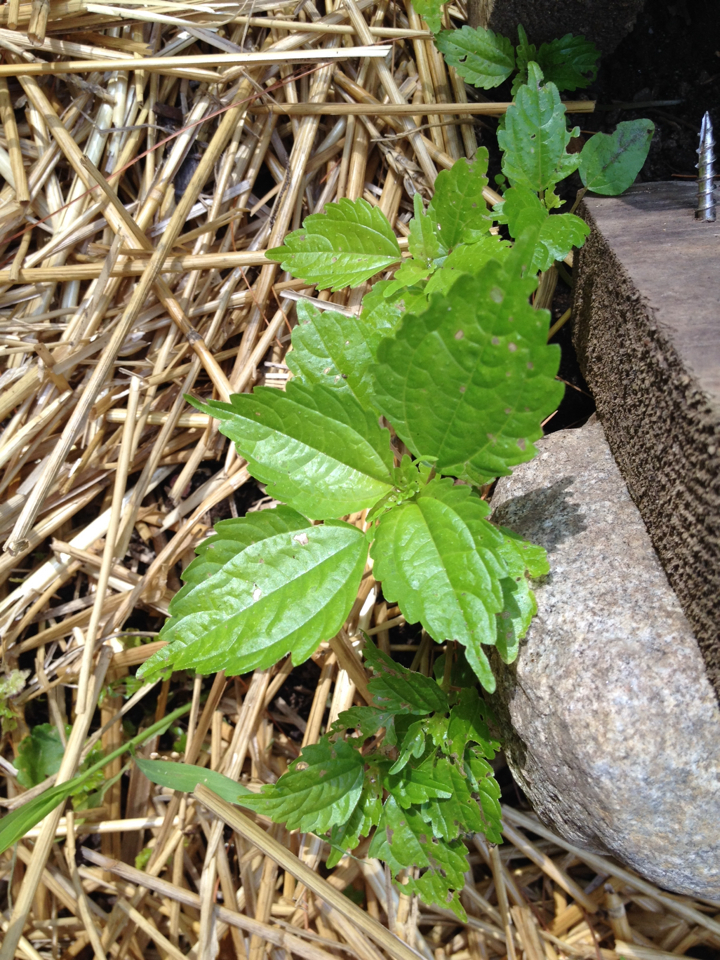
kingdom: Plantae
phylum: Tracheophyta
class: Magnoliopsida
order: Rosales
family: Urticaceae
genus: Pilea
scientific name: Pilea pumila
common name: Clearweed
